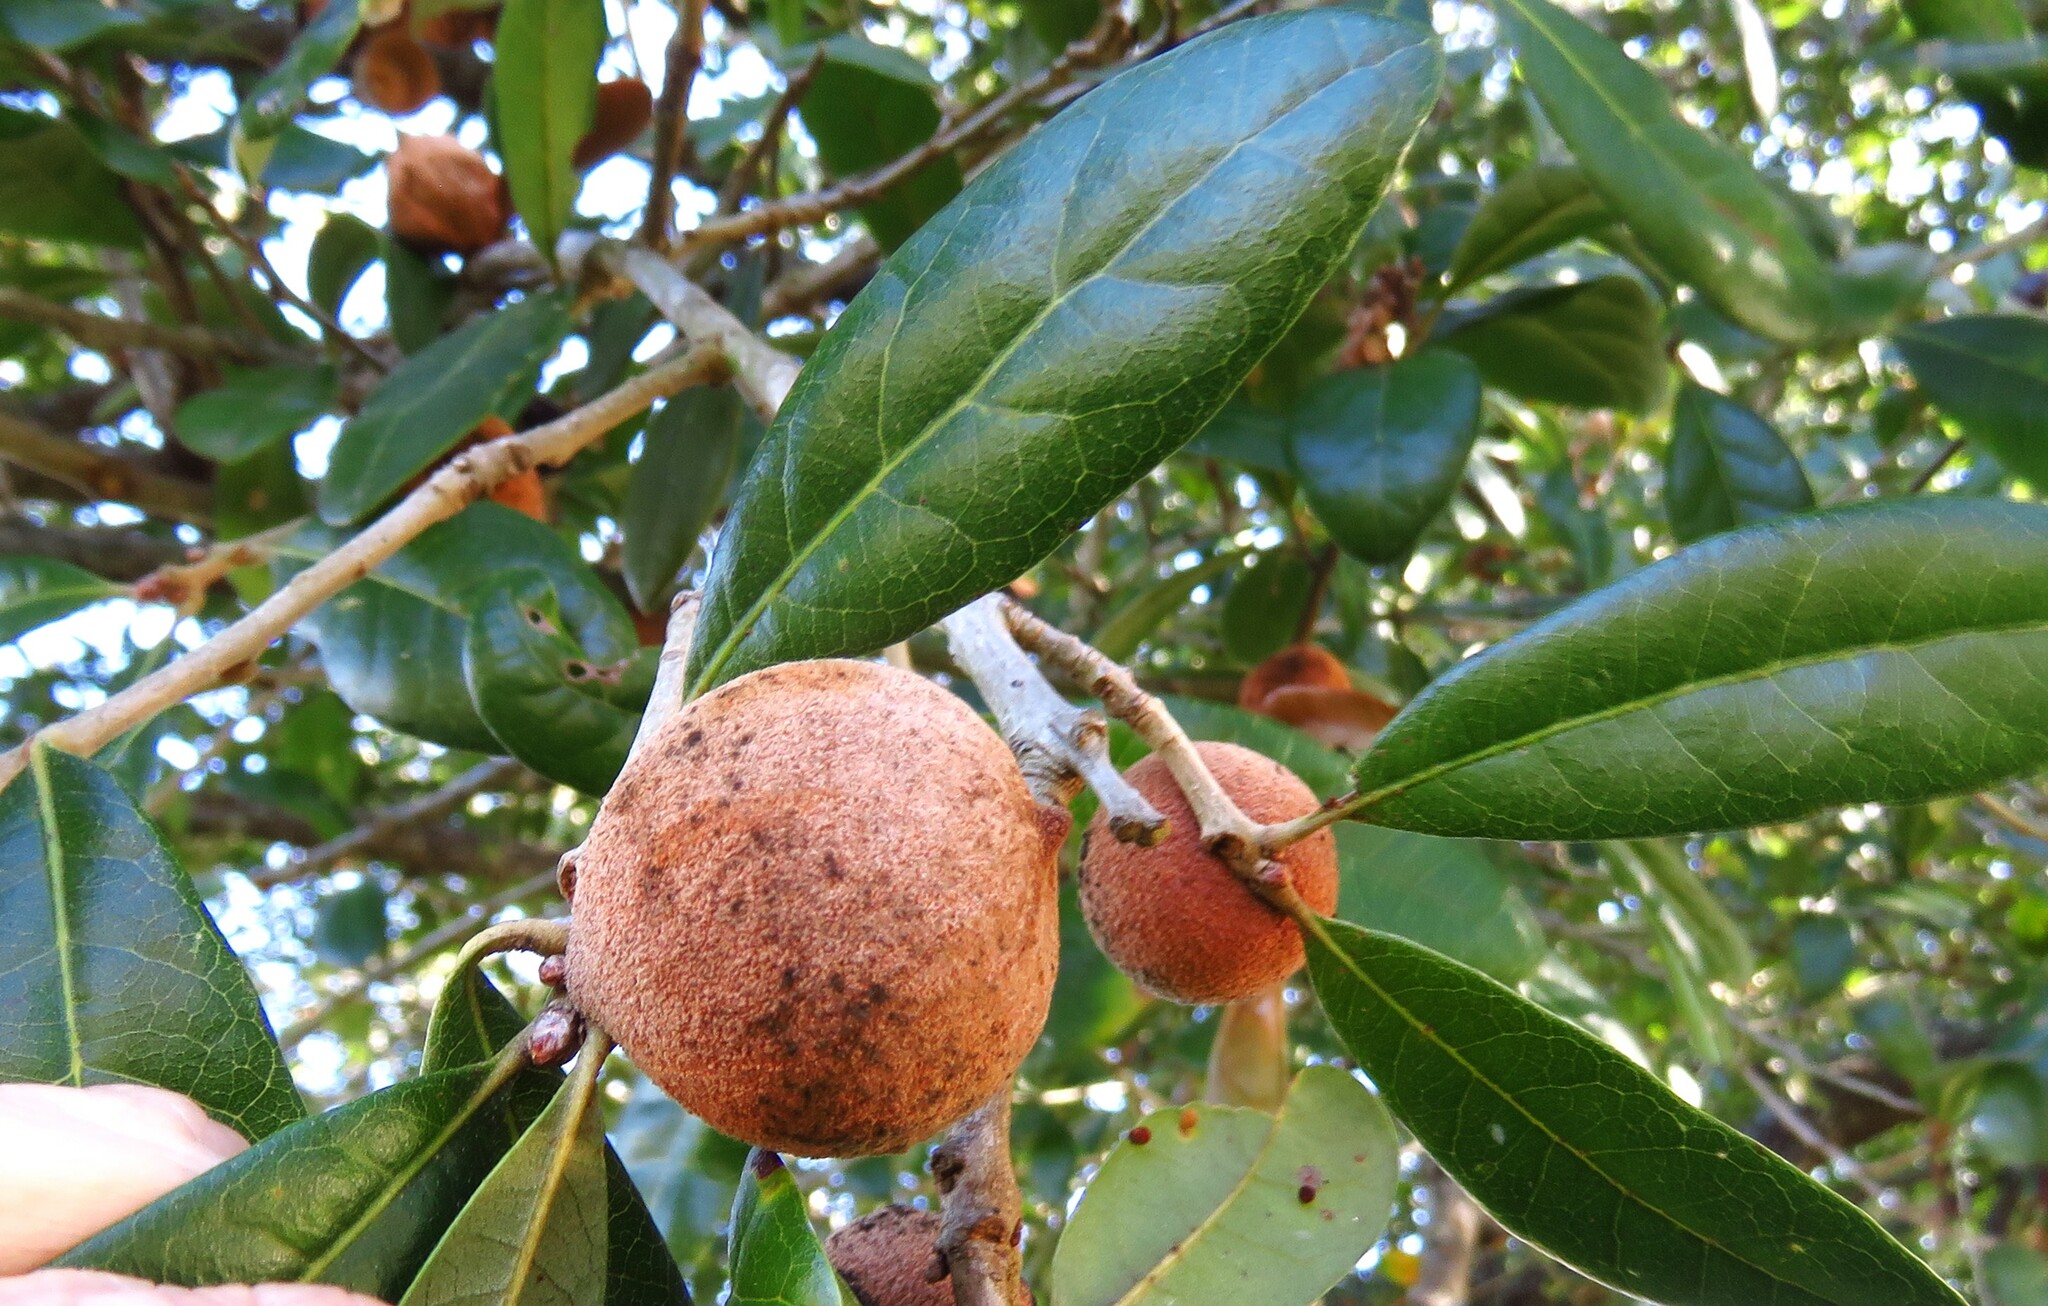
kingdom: Animalia
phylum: Arthropoda
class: Insecta
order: Hymenoptera
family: Cynipidae
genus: Disholcaspis
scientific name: Disholcaspis
